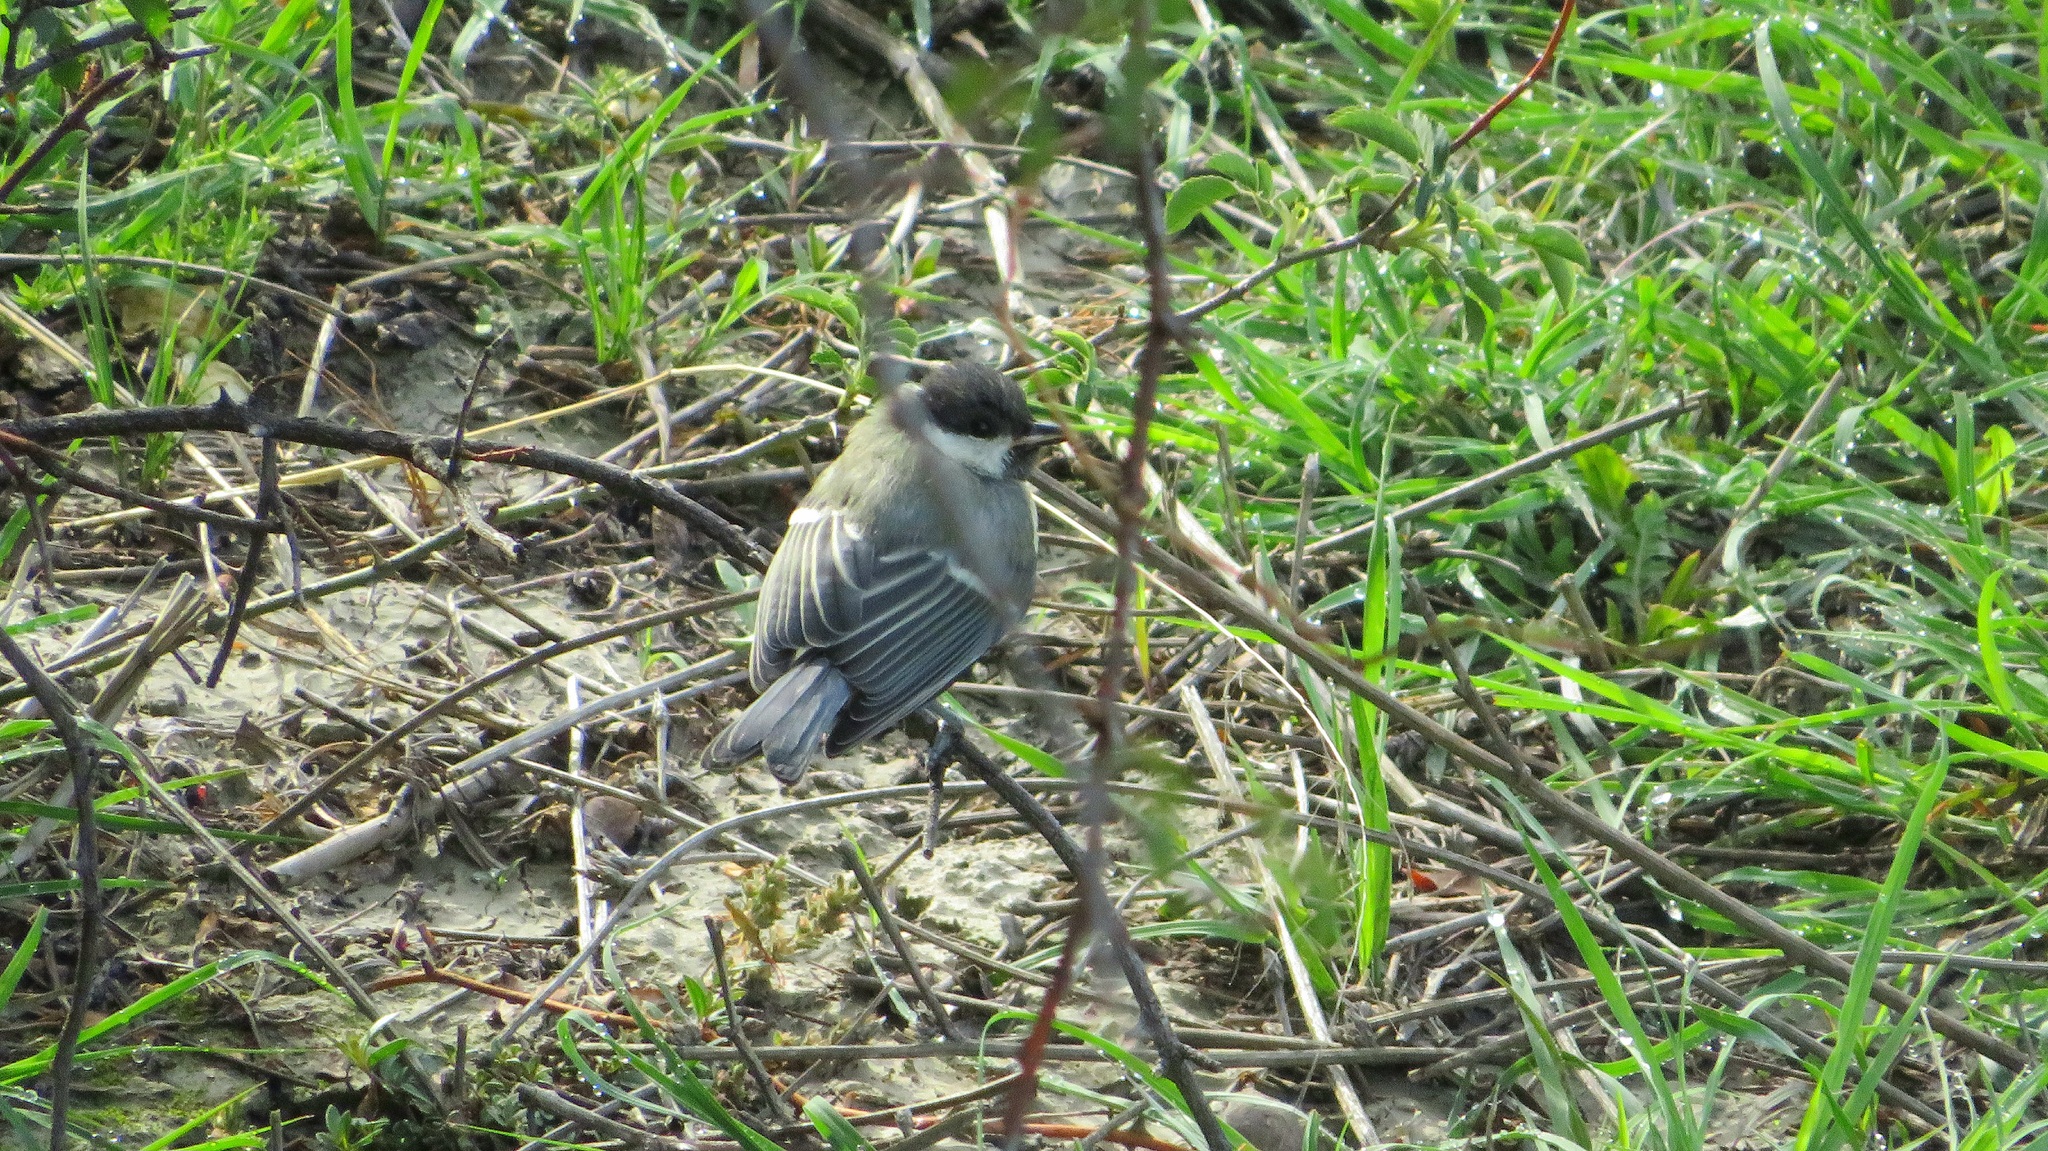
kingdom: Animalia
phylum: Chordata
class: Aves
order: Passeriformes
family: Paridae
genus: Parus
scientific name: Parus major
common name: Great tit
